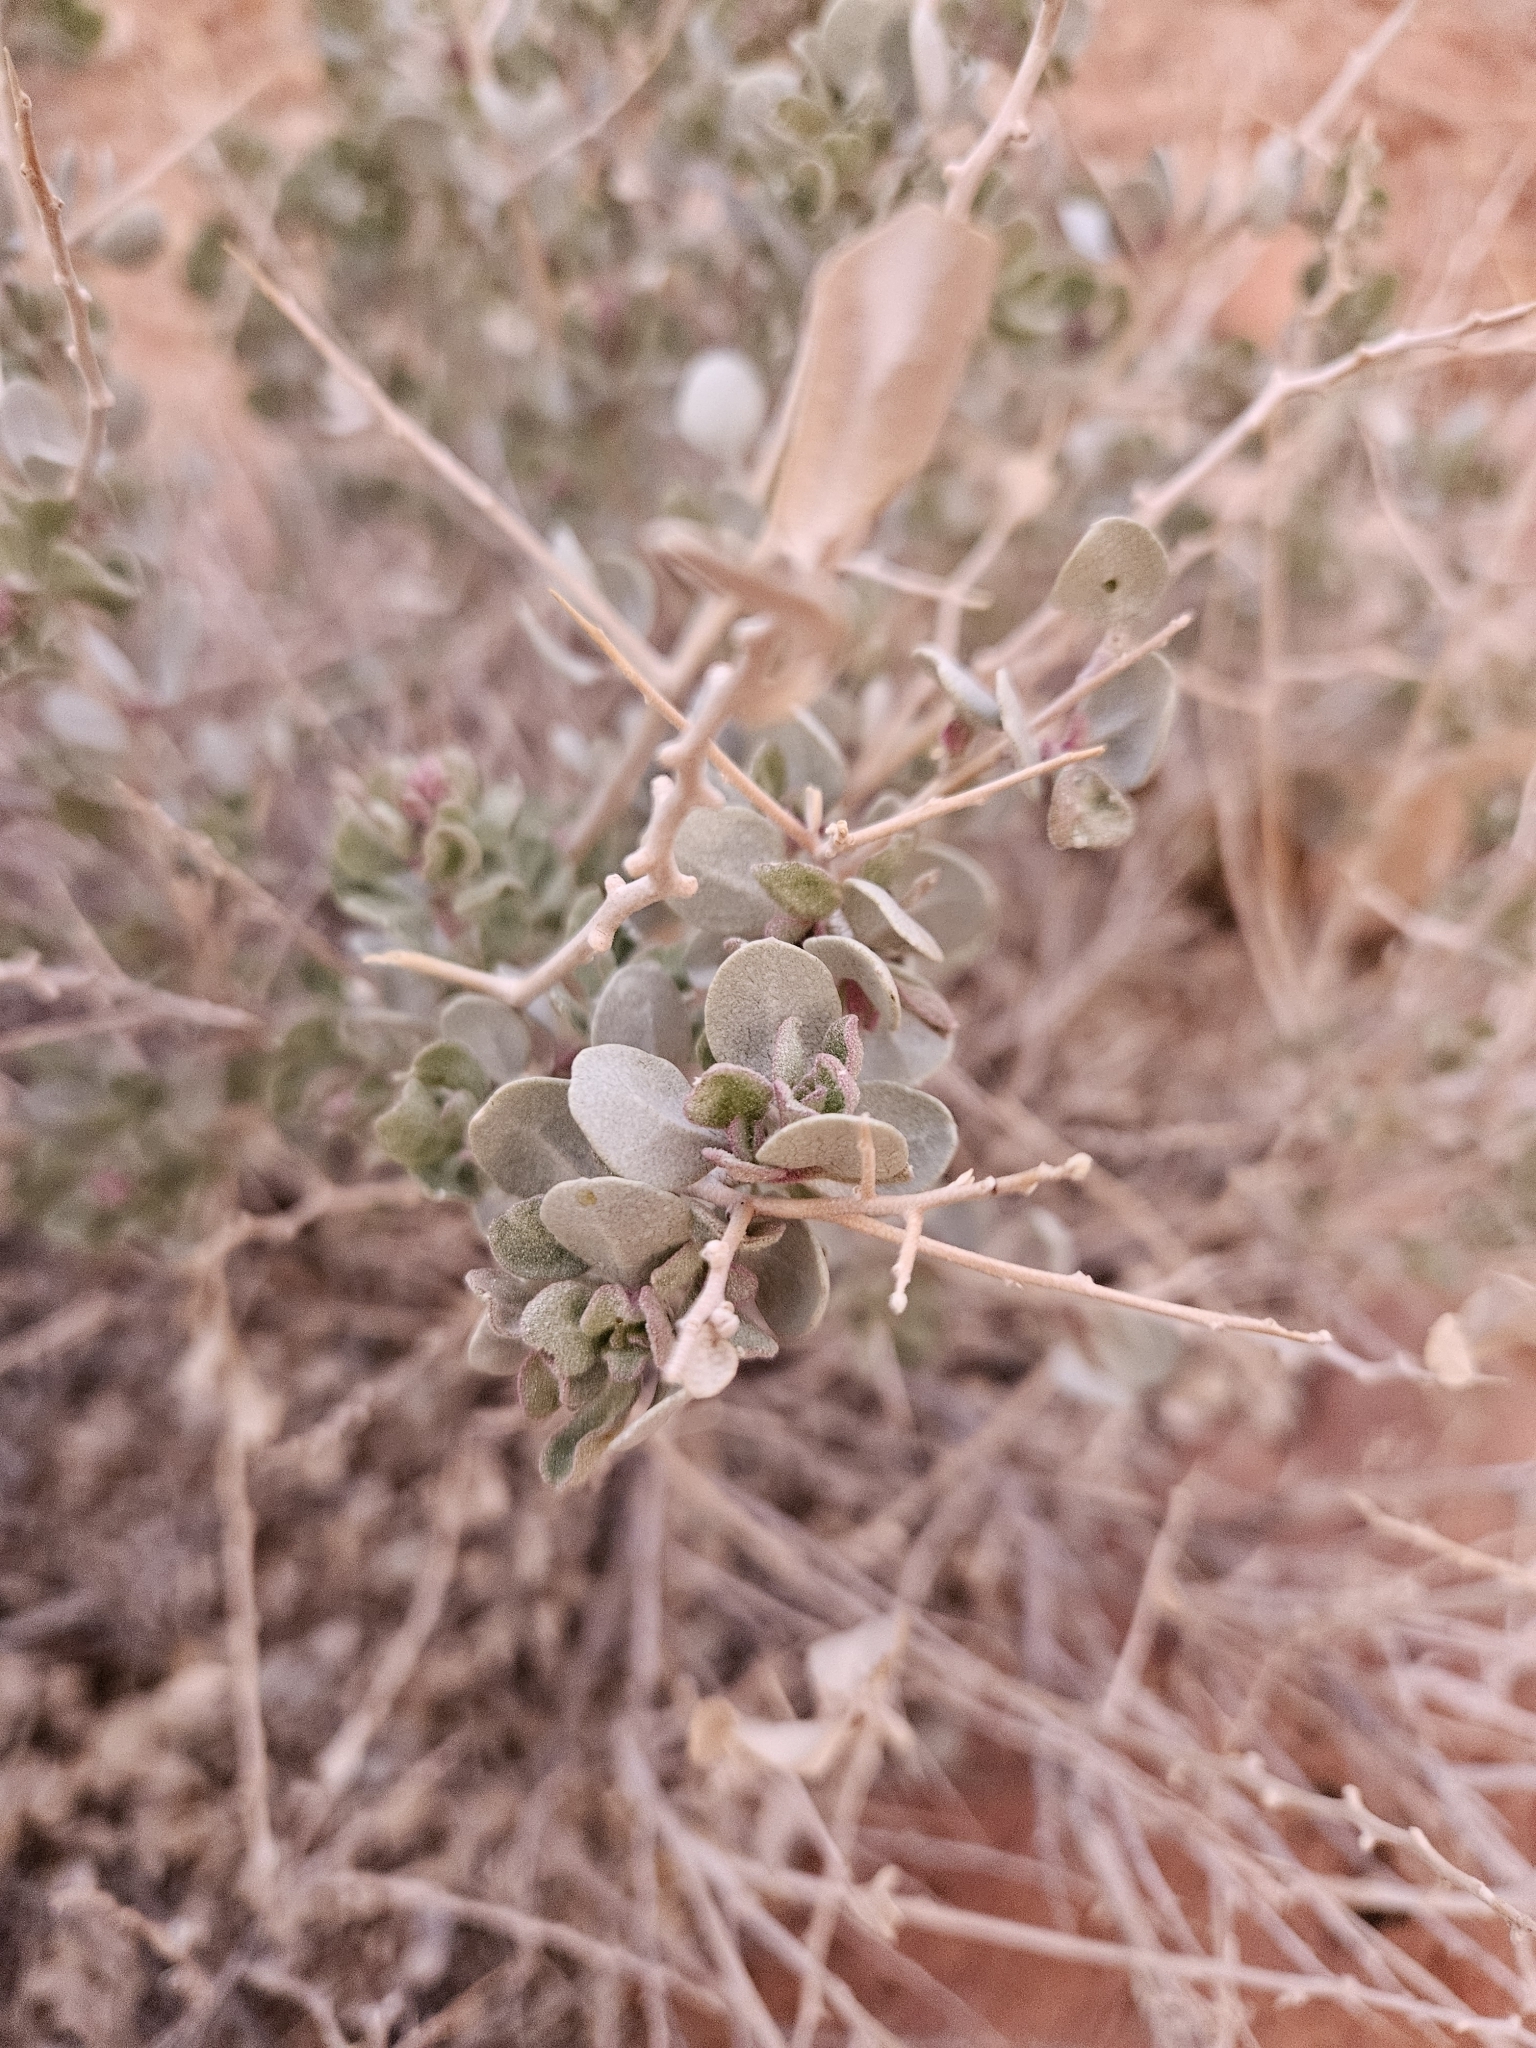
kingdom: Plantae
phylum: Tracheophyta
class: Magnoliopsida
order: Caryophyllales
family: Amaranthaceae
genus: Atriplex
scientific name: Atriplex confertifolia
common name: Shadscale
